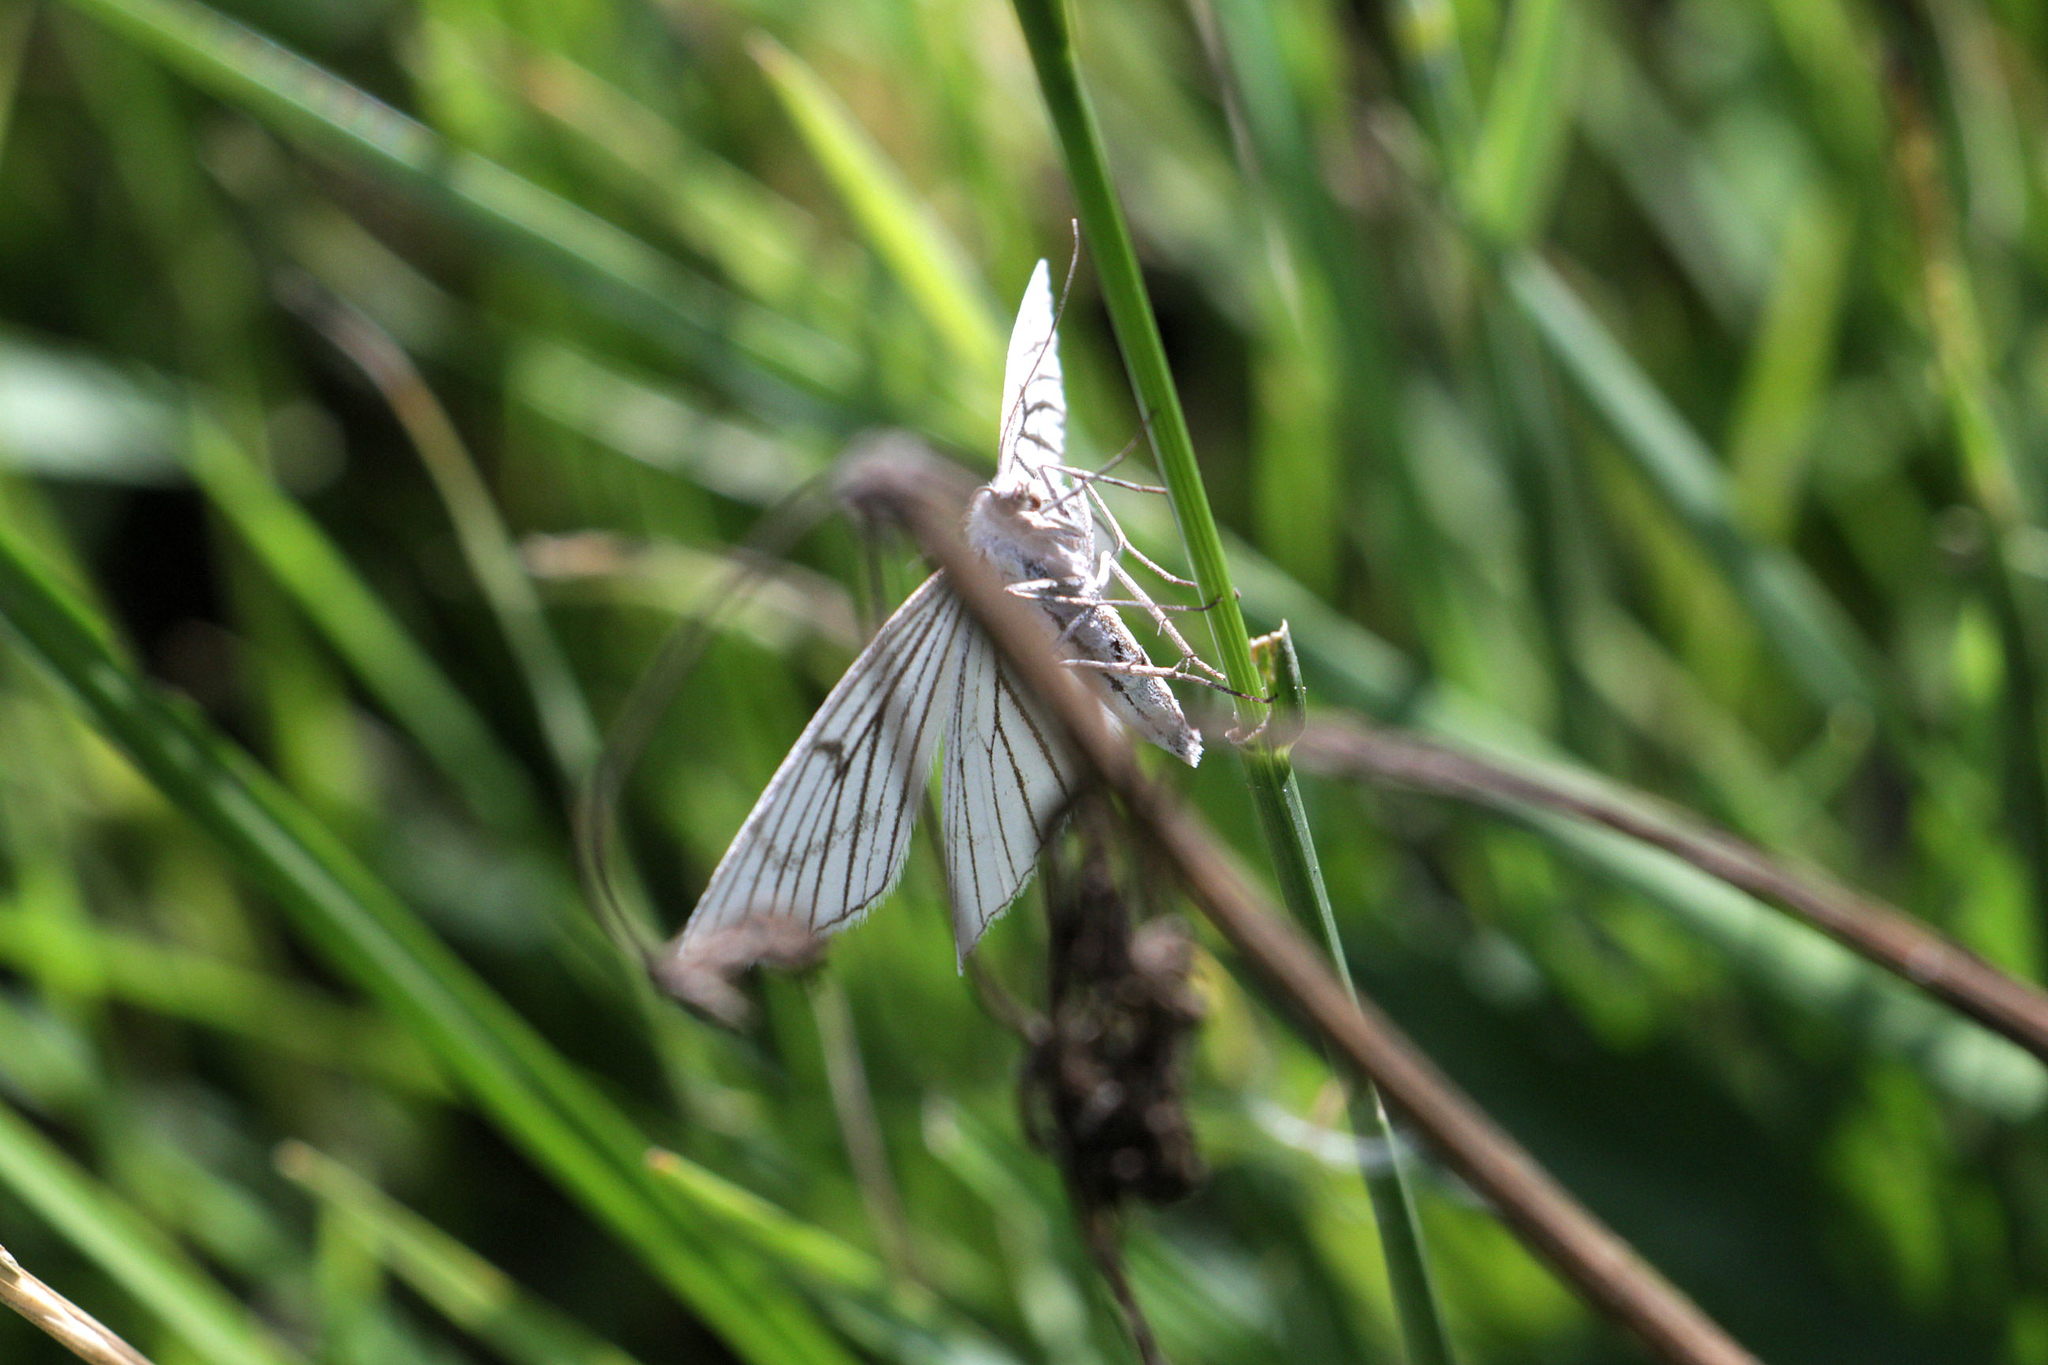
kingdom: Animalia
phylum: Arthropoda
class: Insecta
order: Lepidoptera
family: Geometridae
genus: Siona
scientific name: Siona lineata
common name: Black-veined moth
